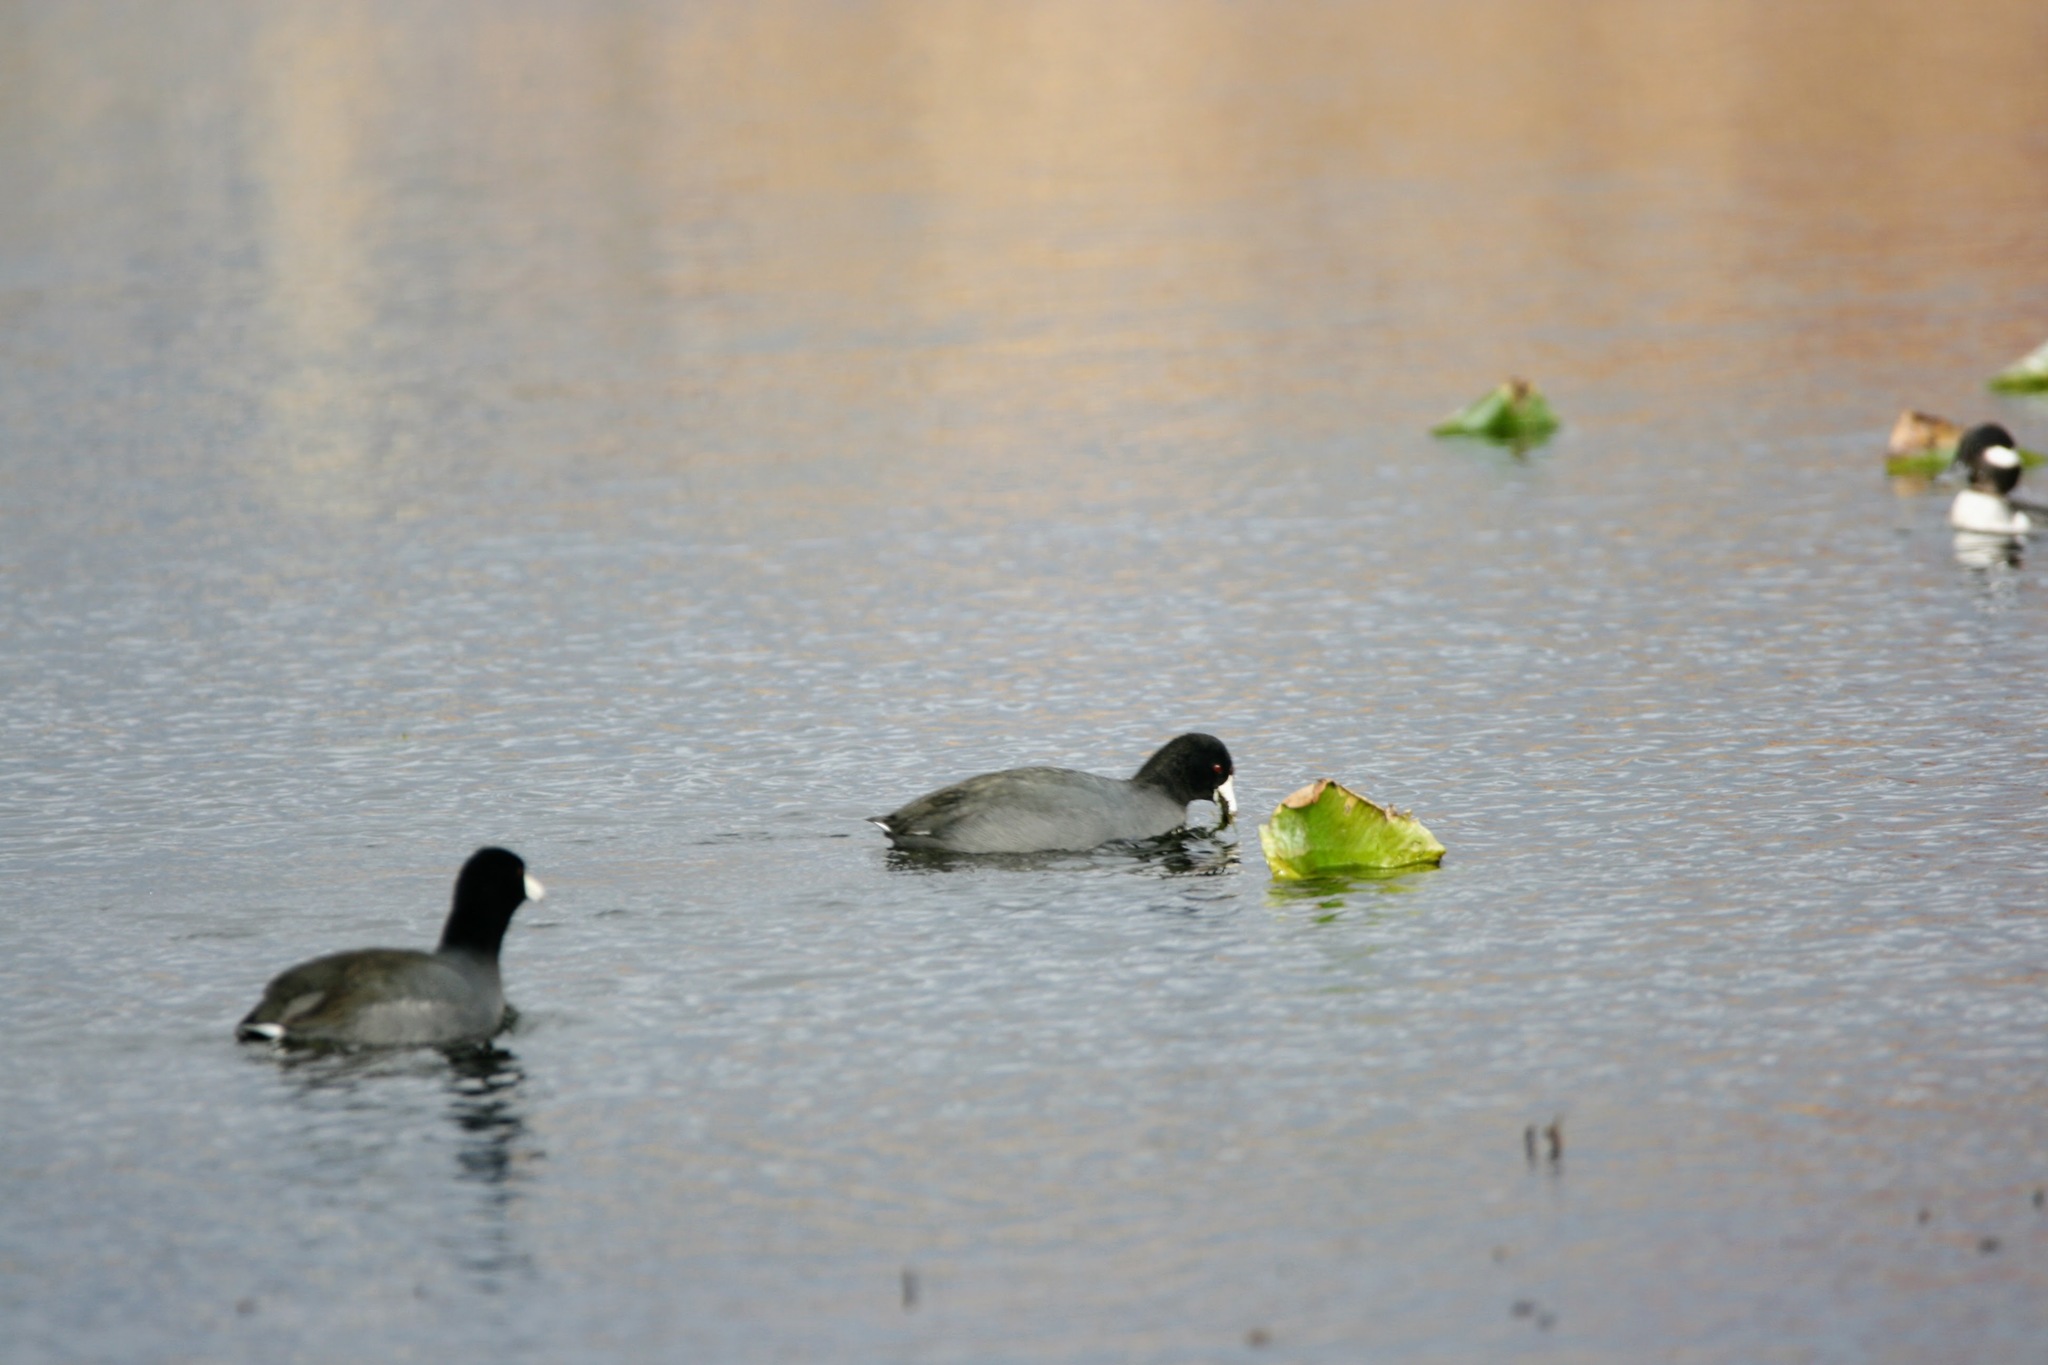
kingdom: Animalia
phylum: Chordata
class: Aves
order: Gruiformes
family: Rallidae
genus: Fulica
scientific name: Fulica americana
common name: American coot
